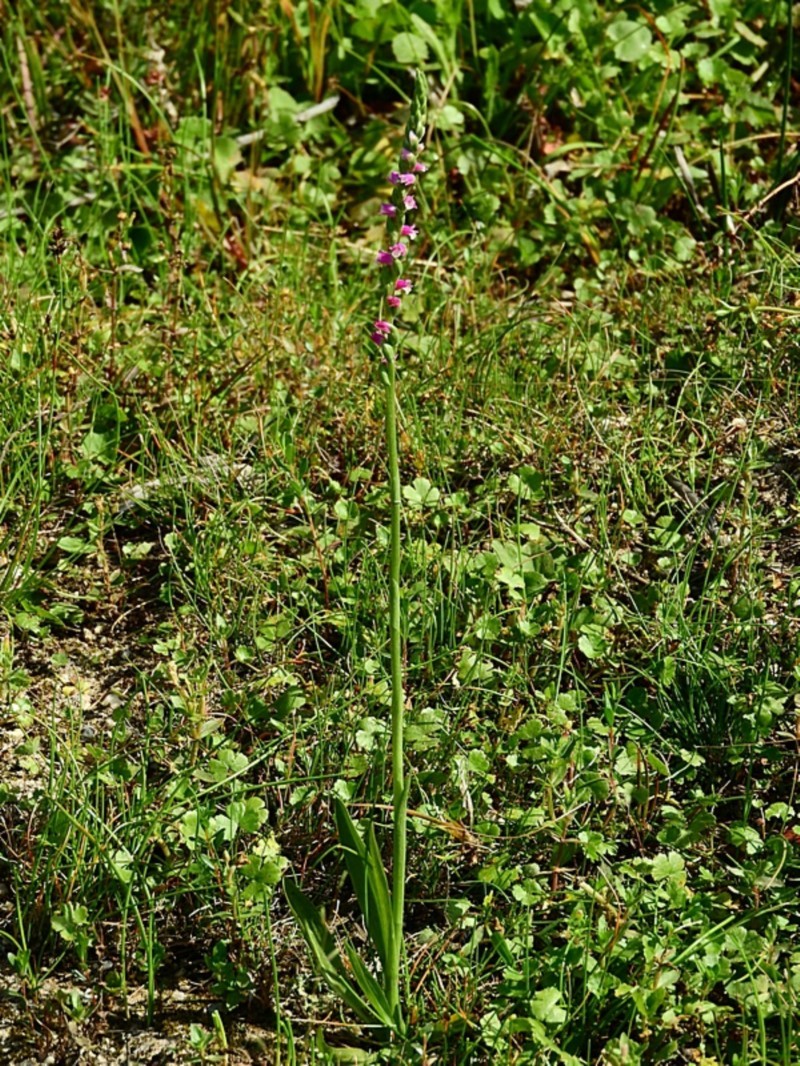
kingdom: Plantae
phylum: Tracheophyta
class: Liliopsida
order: Asparagales
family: Orchidaceae
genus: Spiranthes
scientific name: Spiranthes australis
